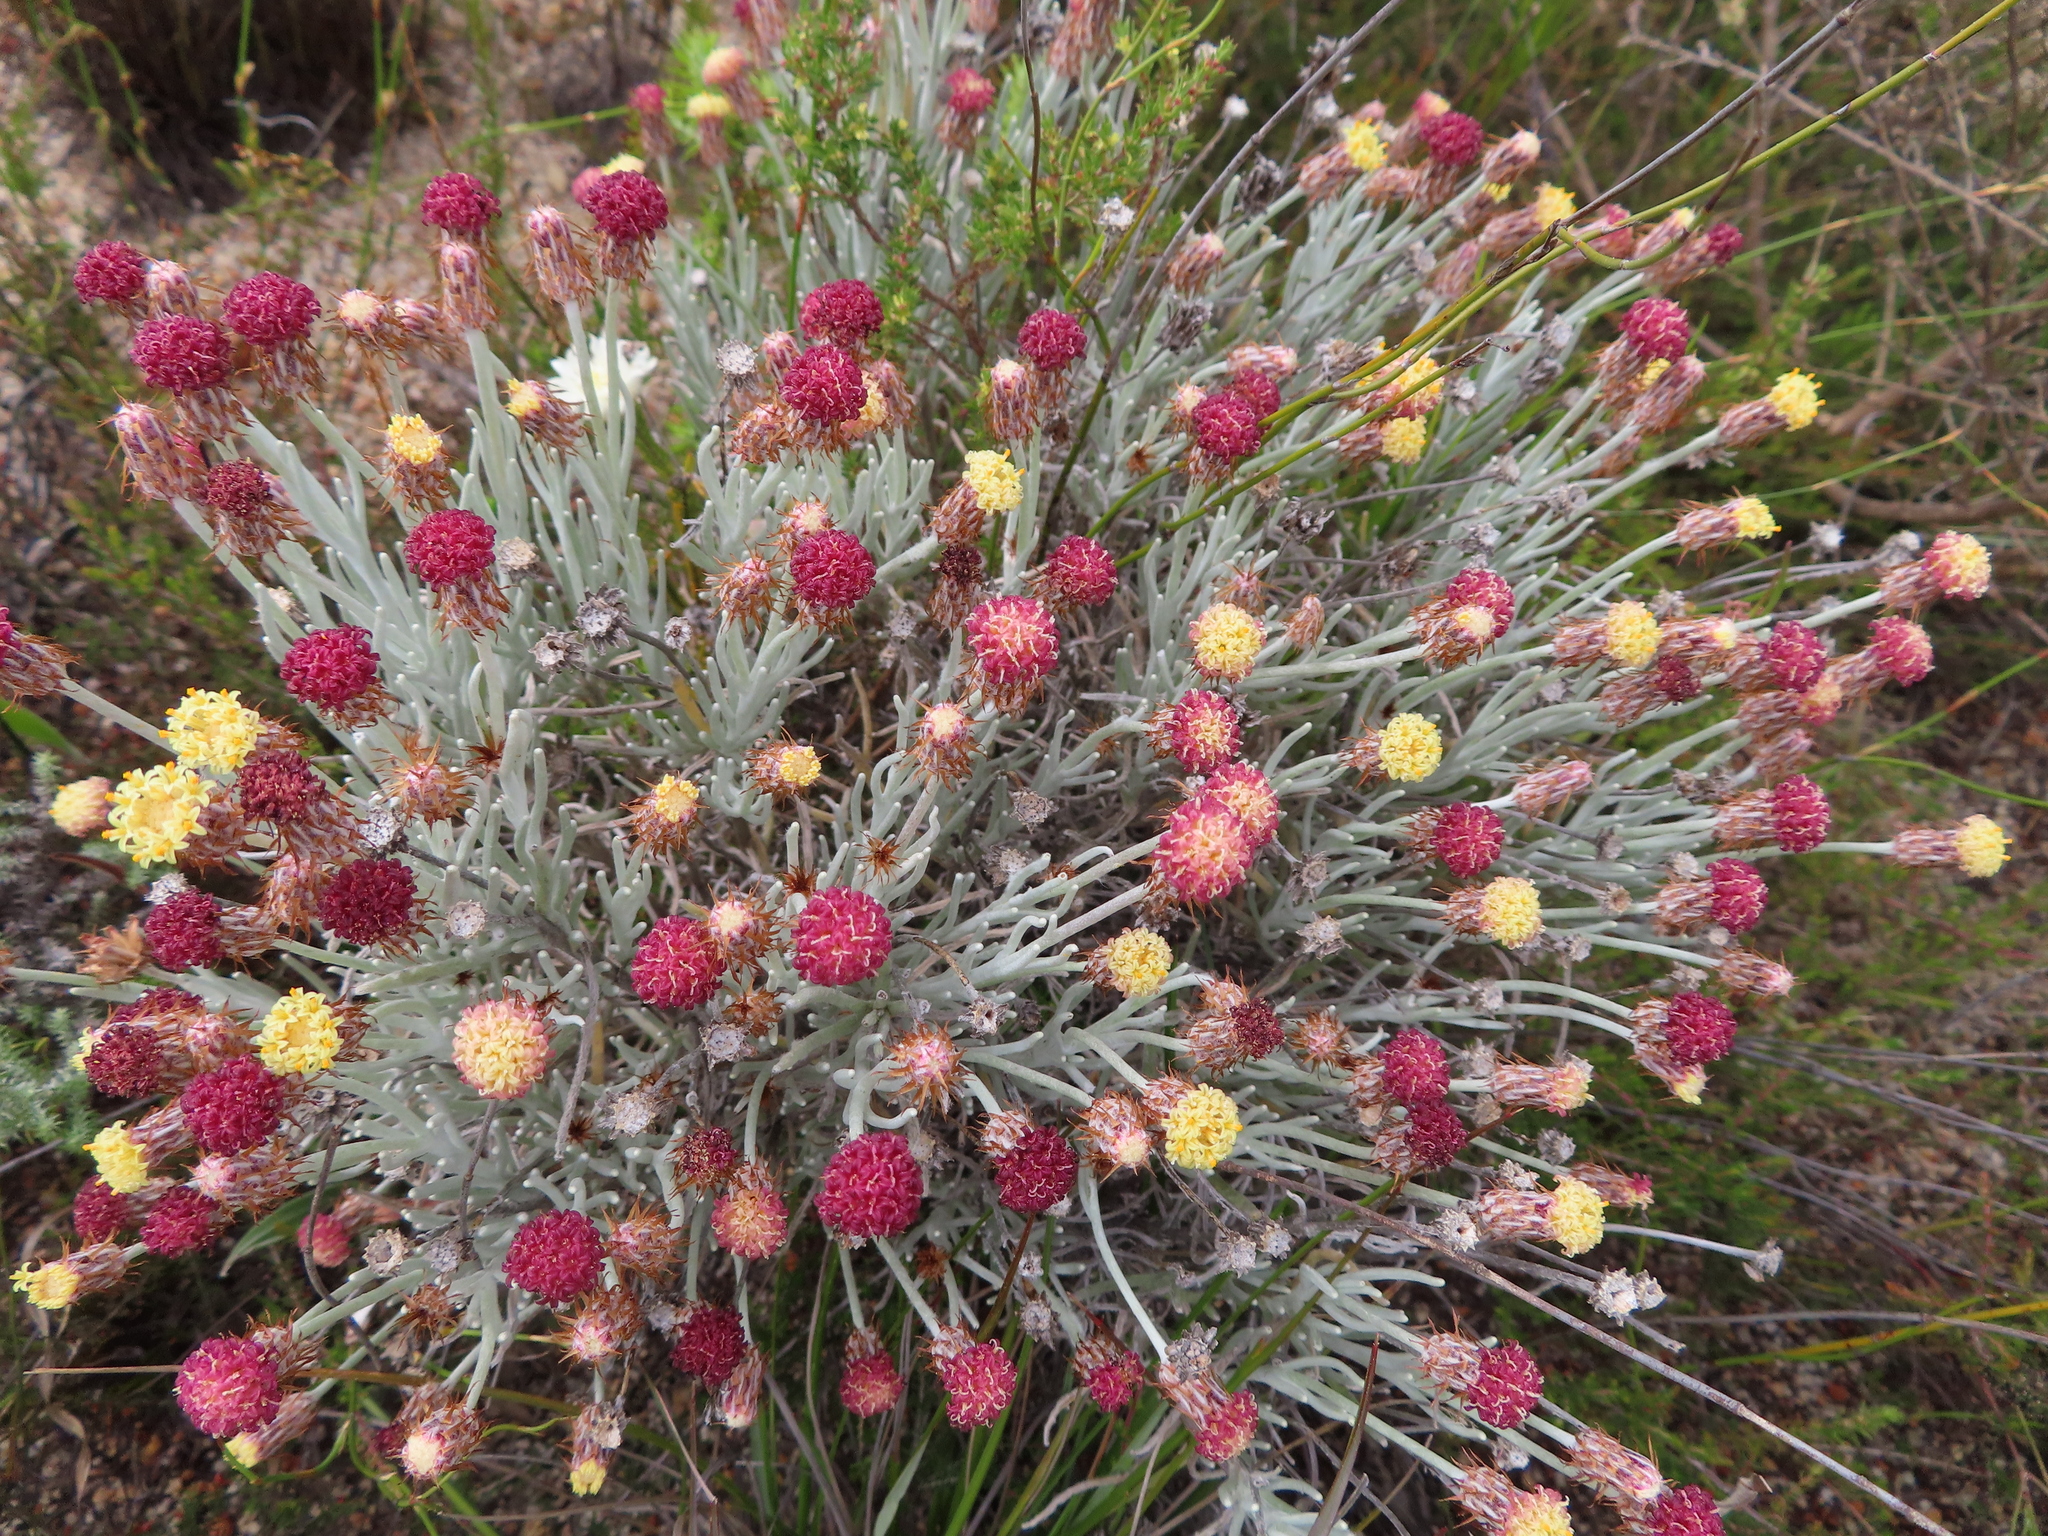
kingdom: Plantae
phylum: Tracheophyta
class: Magnoliopsida
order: Asterales
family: Asteraceae
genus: Syncarpha
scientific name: Syncarpha gnaphaloides
